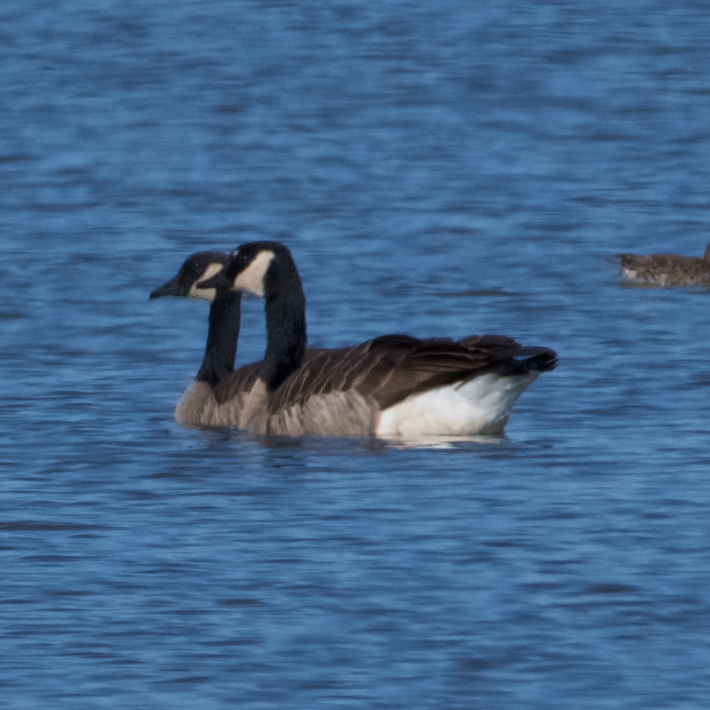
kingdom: Animalia
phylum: Chordata
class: Aves
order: Anseriformes
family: Anatidae
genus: Branta
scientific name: Branta canadensis
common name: Canada goose
